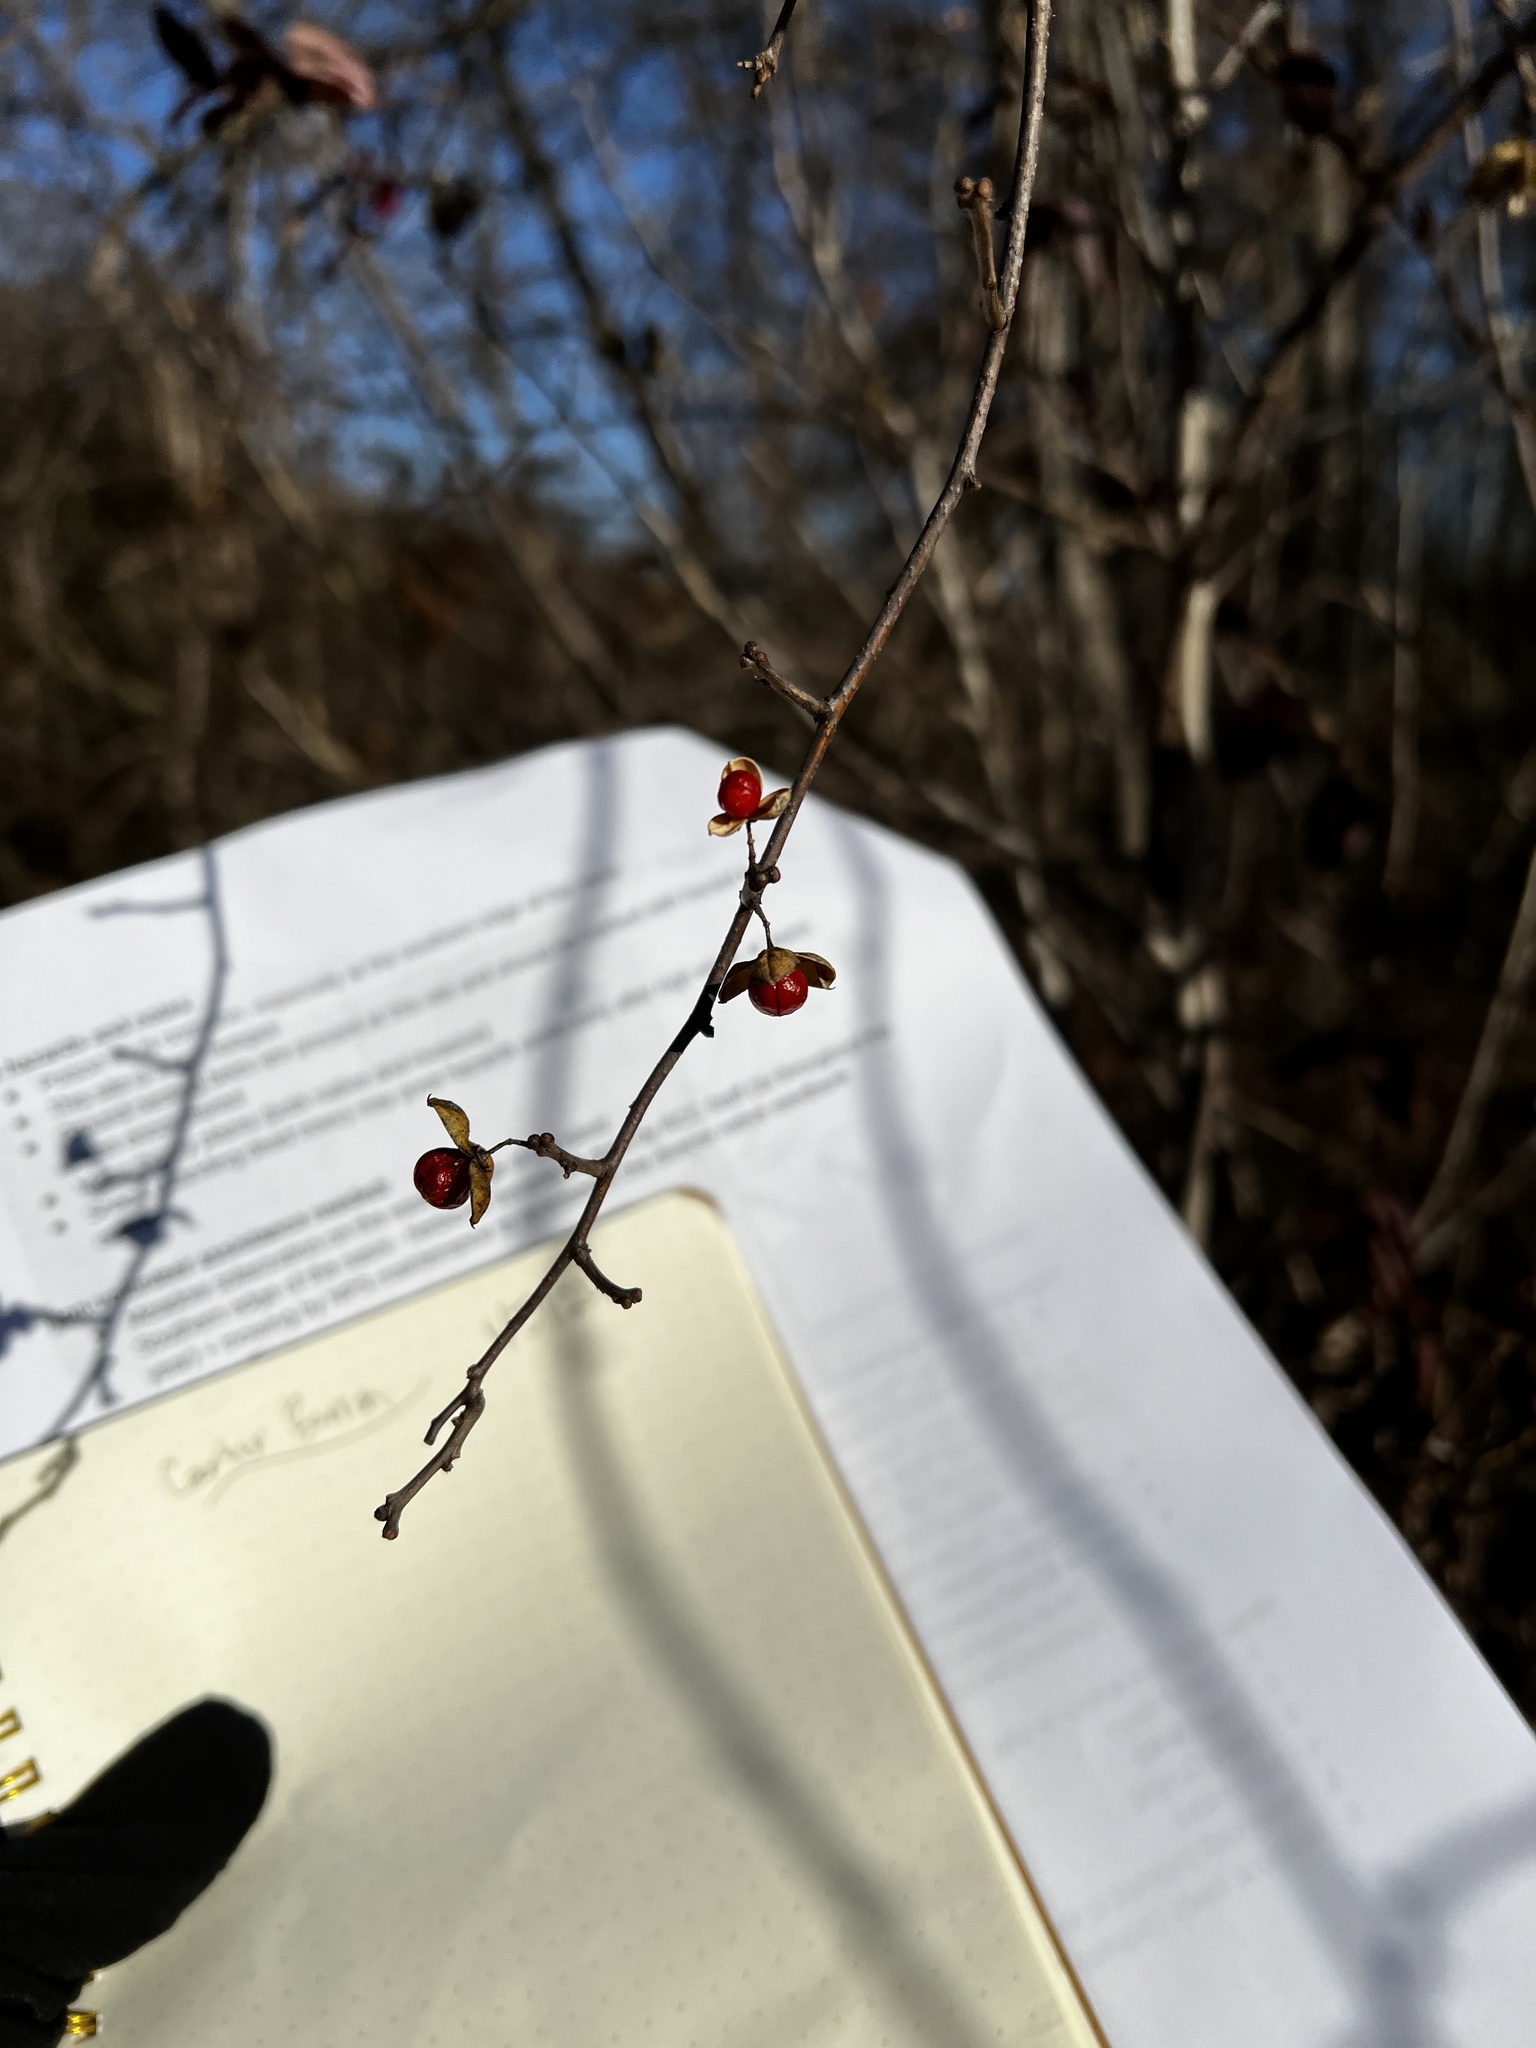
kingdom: Plantae
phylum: Tracheophyta
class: Magnoliopsida
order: Celastrales
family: Celastraceae
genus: Celastrus
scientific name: Celastrus orbiculatus
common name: Oriental bittersweet
